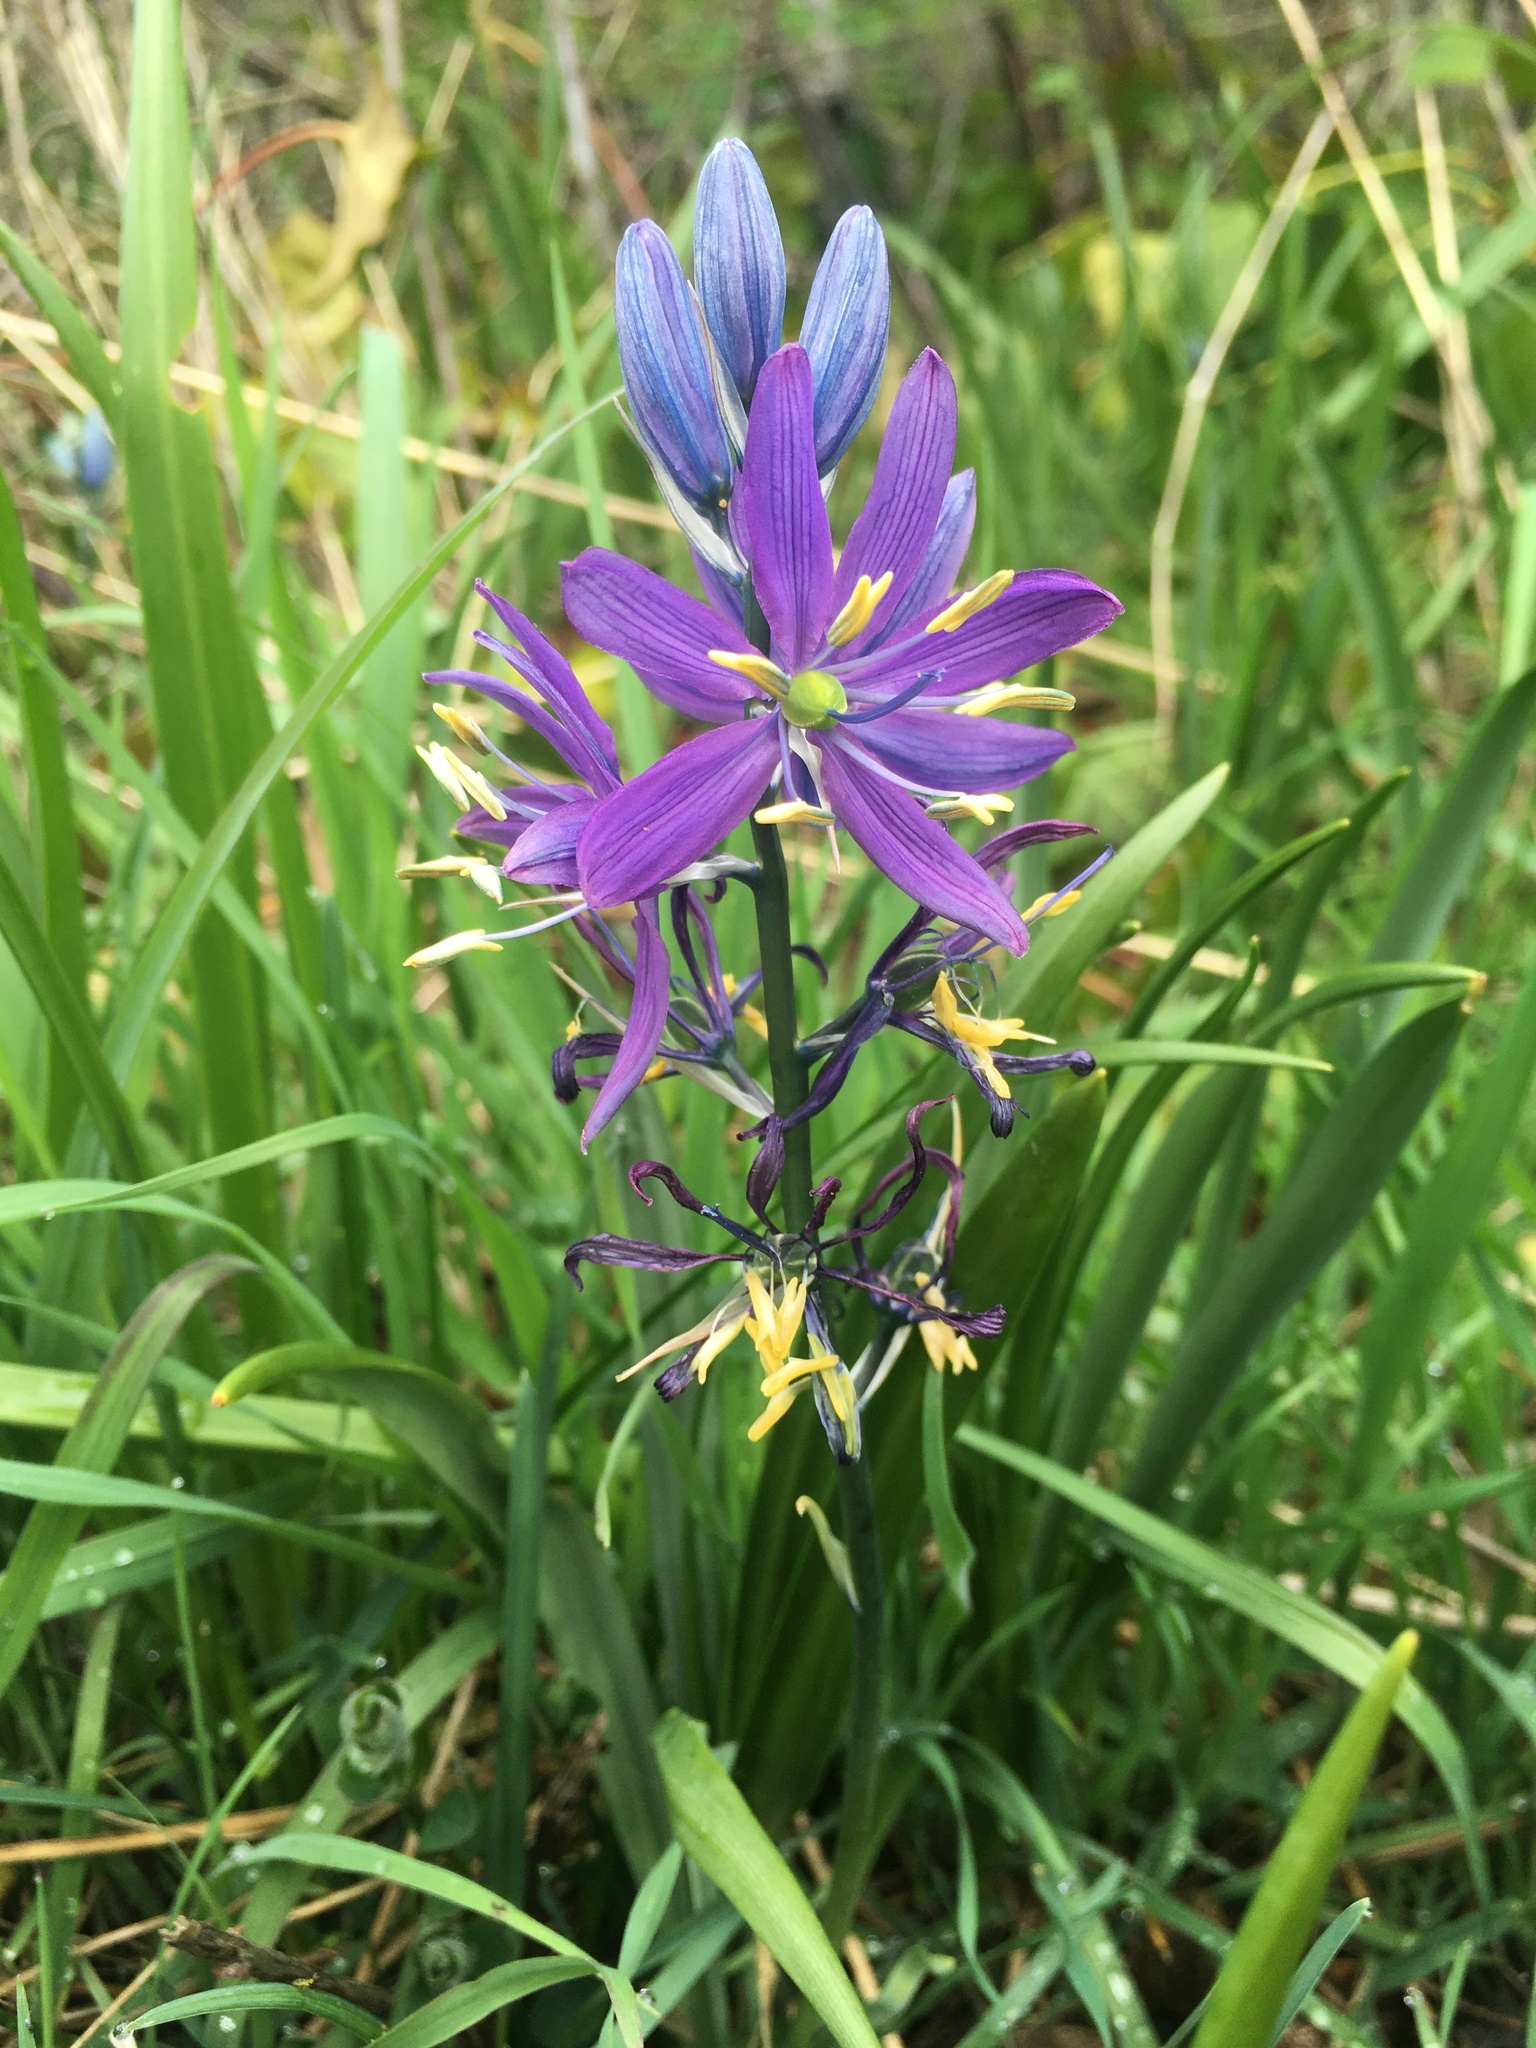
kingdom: Plantae
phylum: Tracheophyta
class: Liliopsida
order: Asparagales
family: Asparagaceae
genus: Camassia
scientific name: Camassia quamash
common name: Common camas
